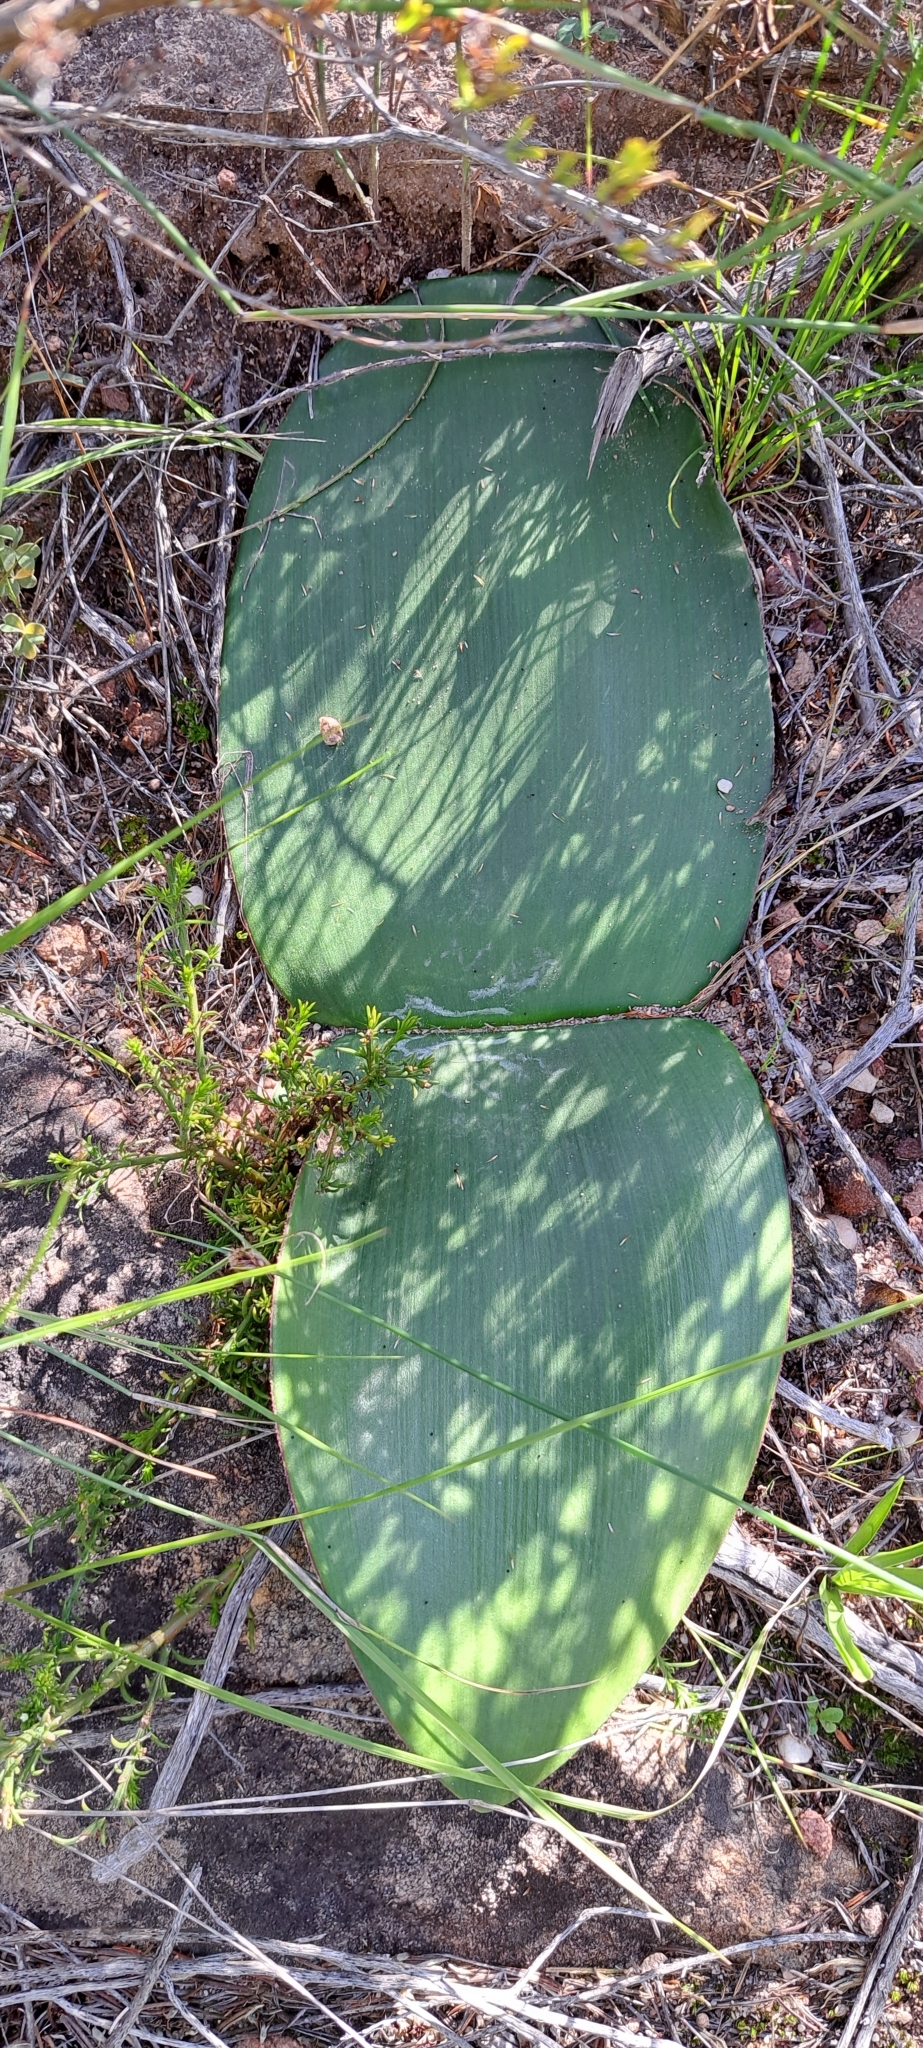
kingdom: Plantae
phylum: Tracheophyta
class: Liliopsida
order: Asparagales
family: Amaryllidaceae
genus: Haemanthus
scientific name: Haemanthus sanguineus
